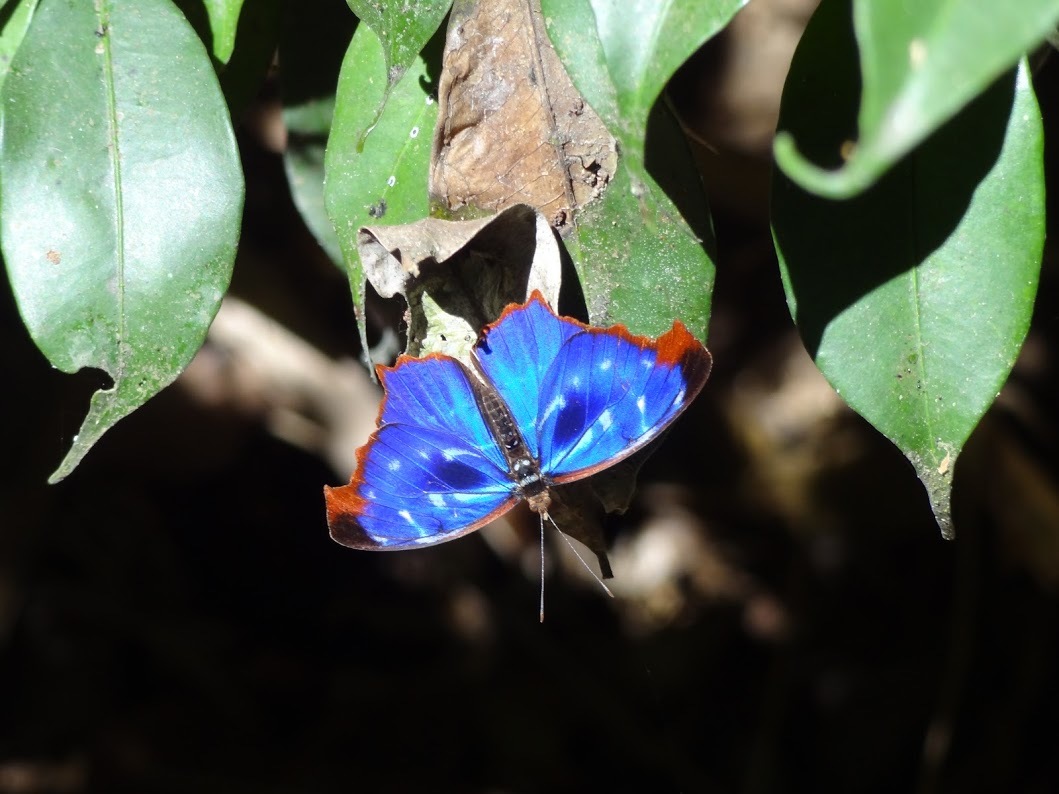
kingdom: Animalia
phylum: Arthropoda
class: Insecta
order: Lepidoptera
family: Nymphalidae
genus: Myscelia
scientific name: Myscelia orsis
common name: Orsis bluewing
